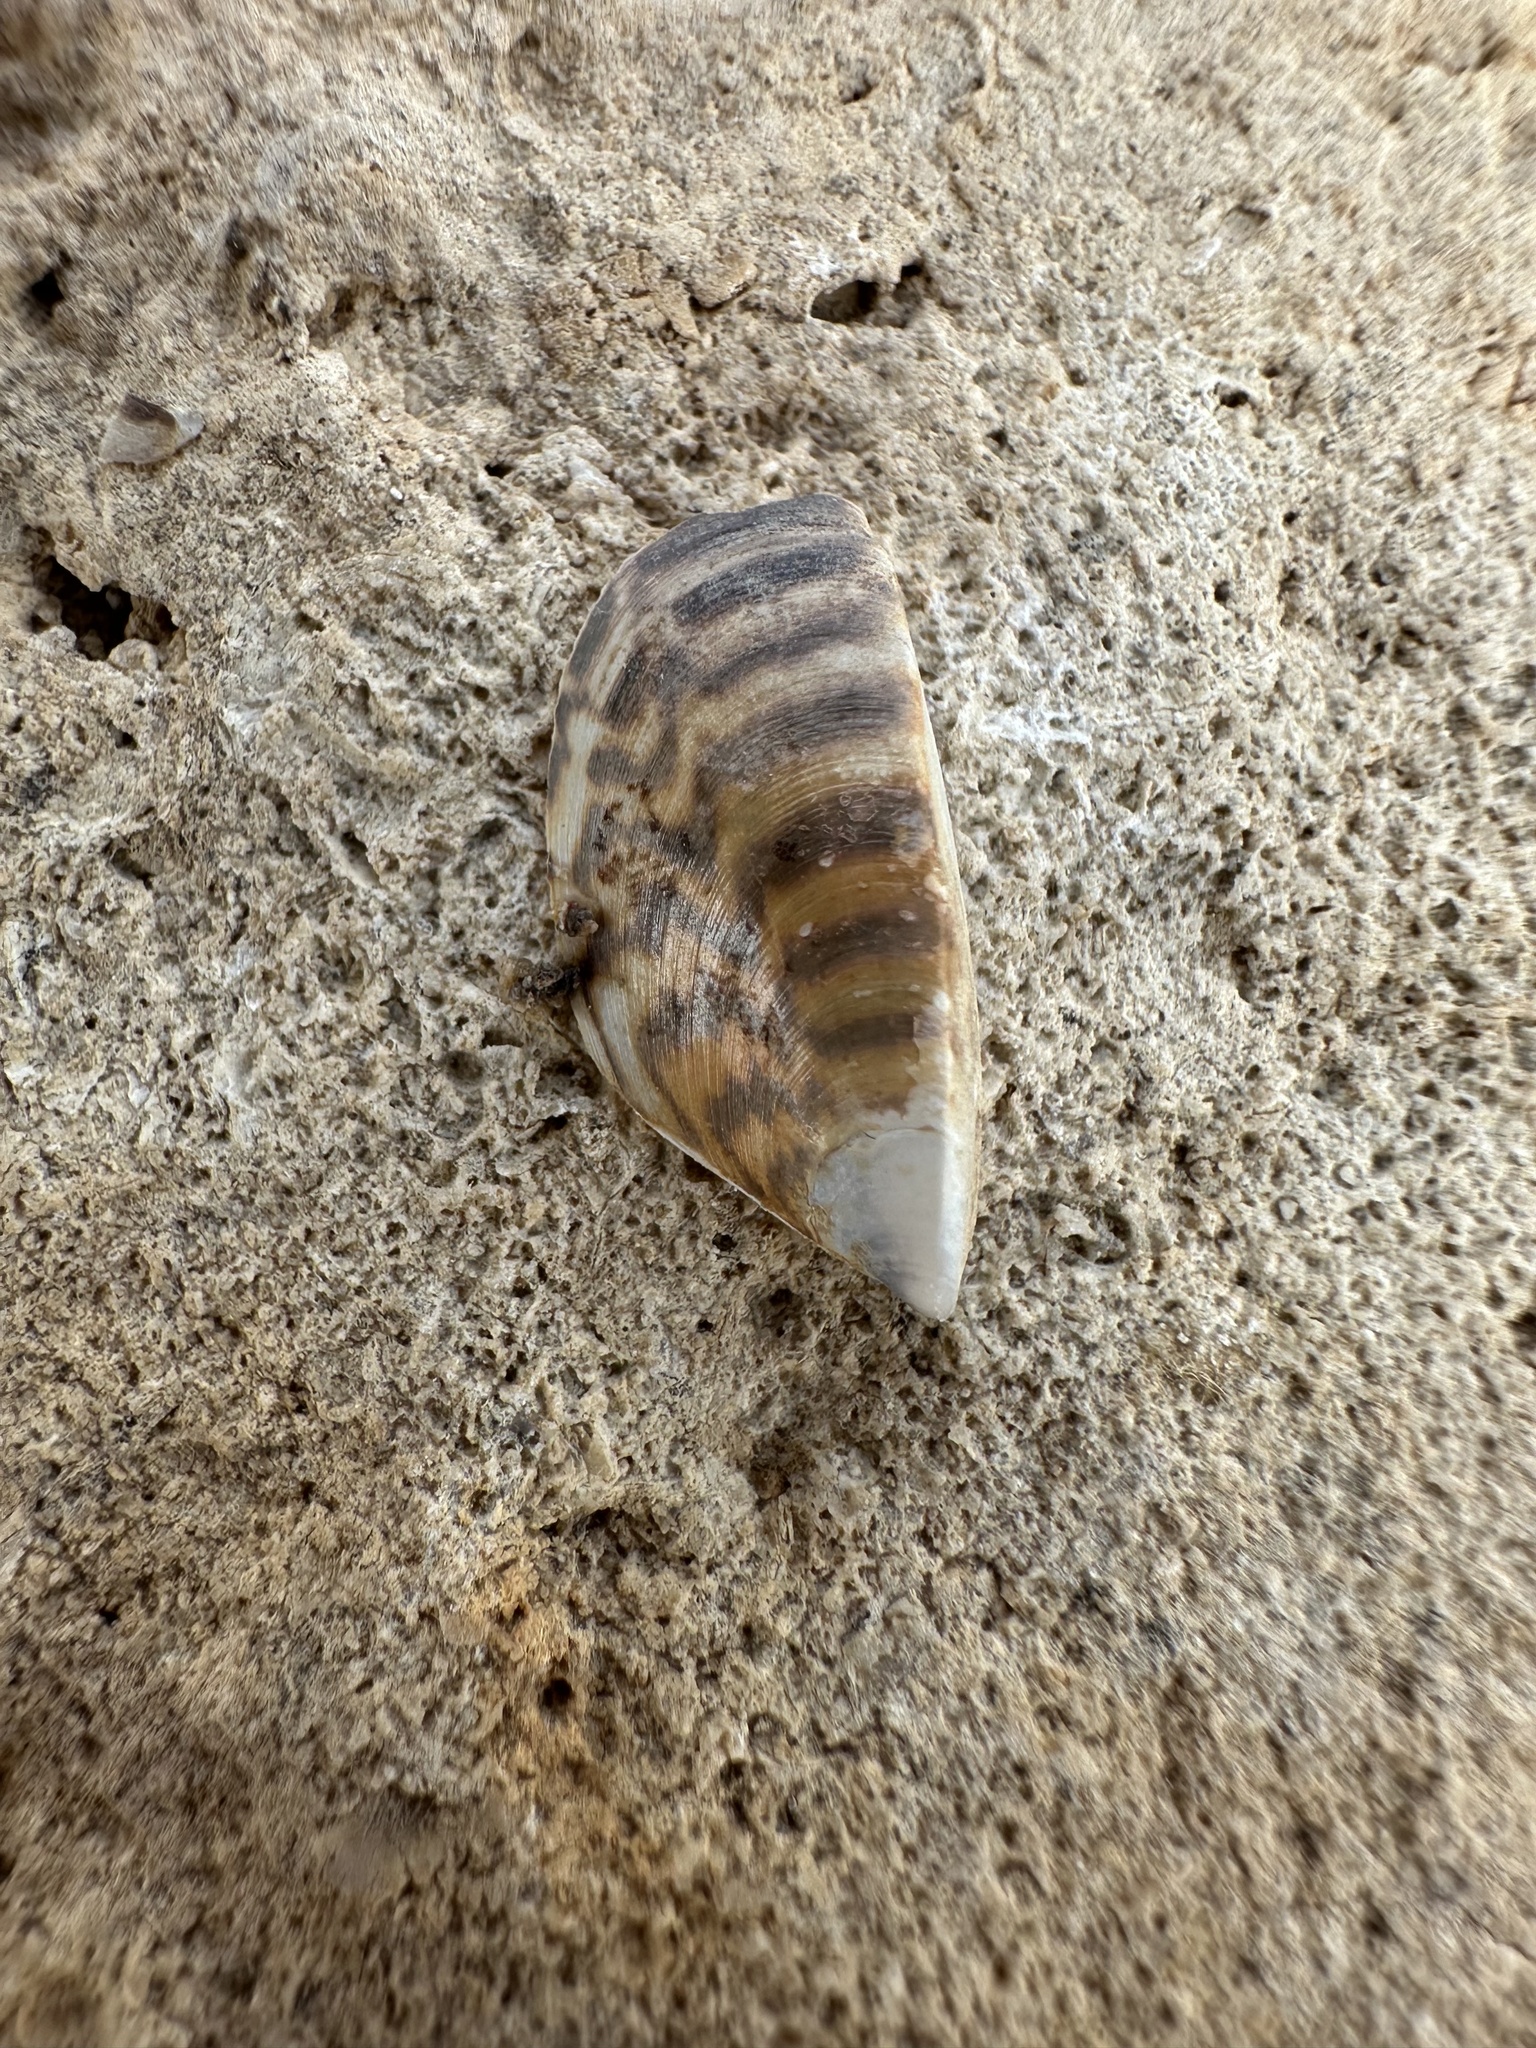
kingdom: Animalia
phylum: Mollusca
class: Bivalvia
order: Myida
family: Dreissenidae
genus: Dreissena
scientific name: Dreissena polymorpha
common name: Zebra mussel
